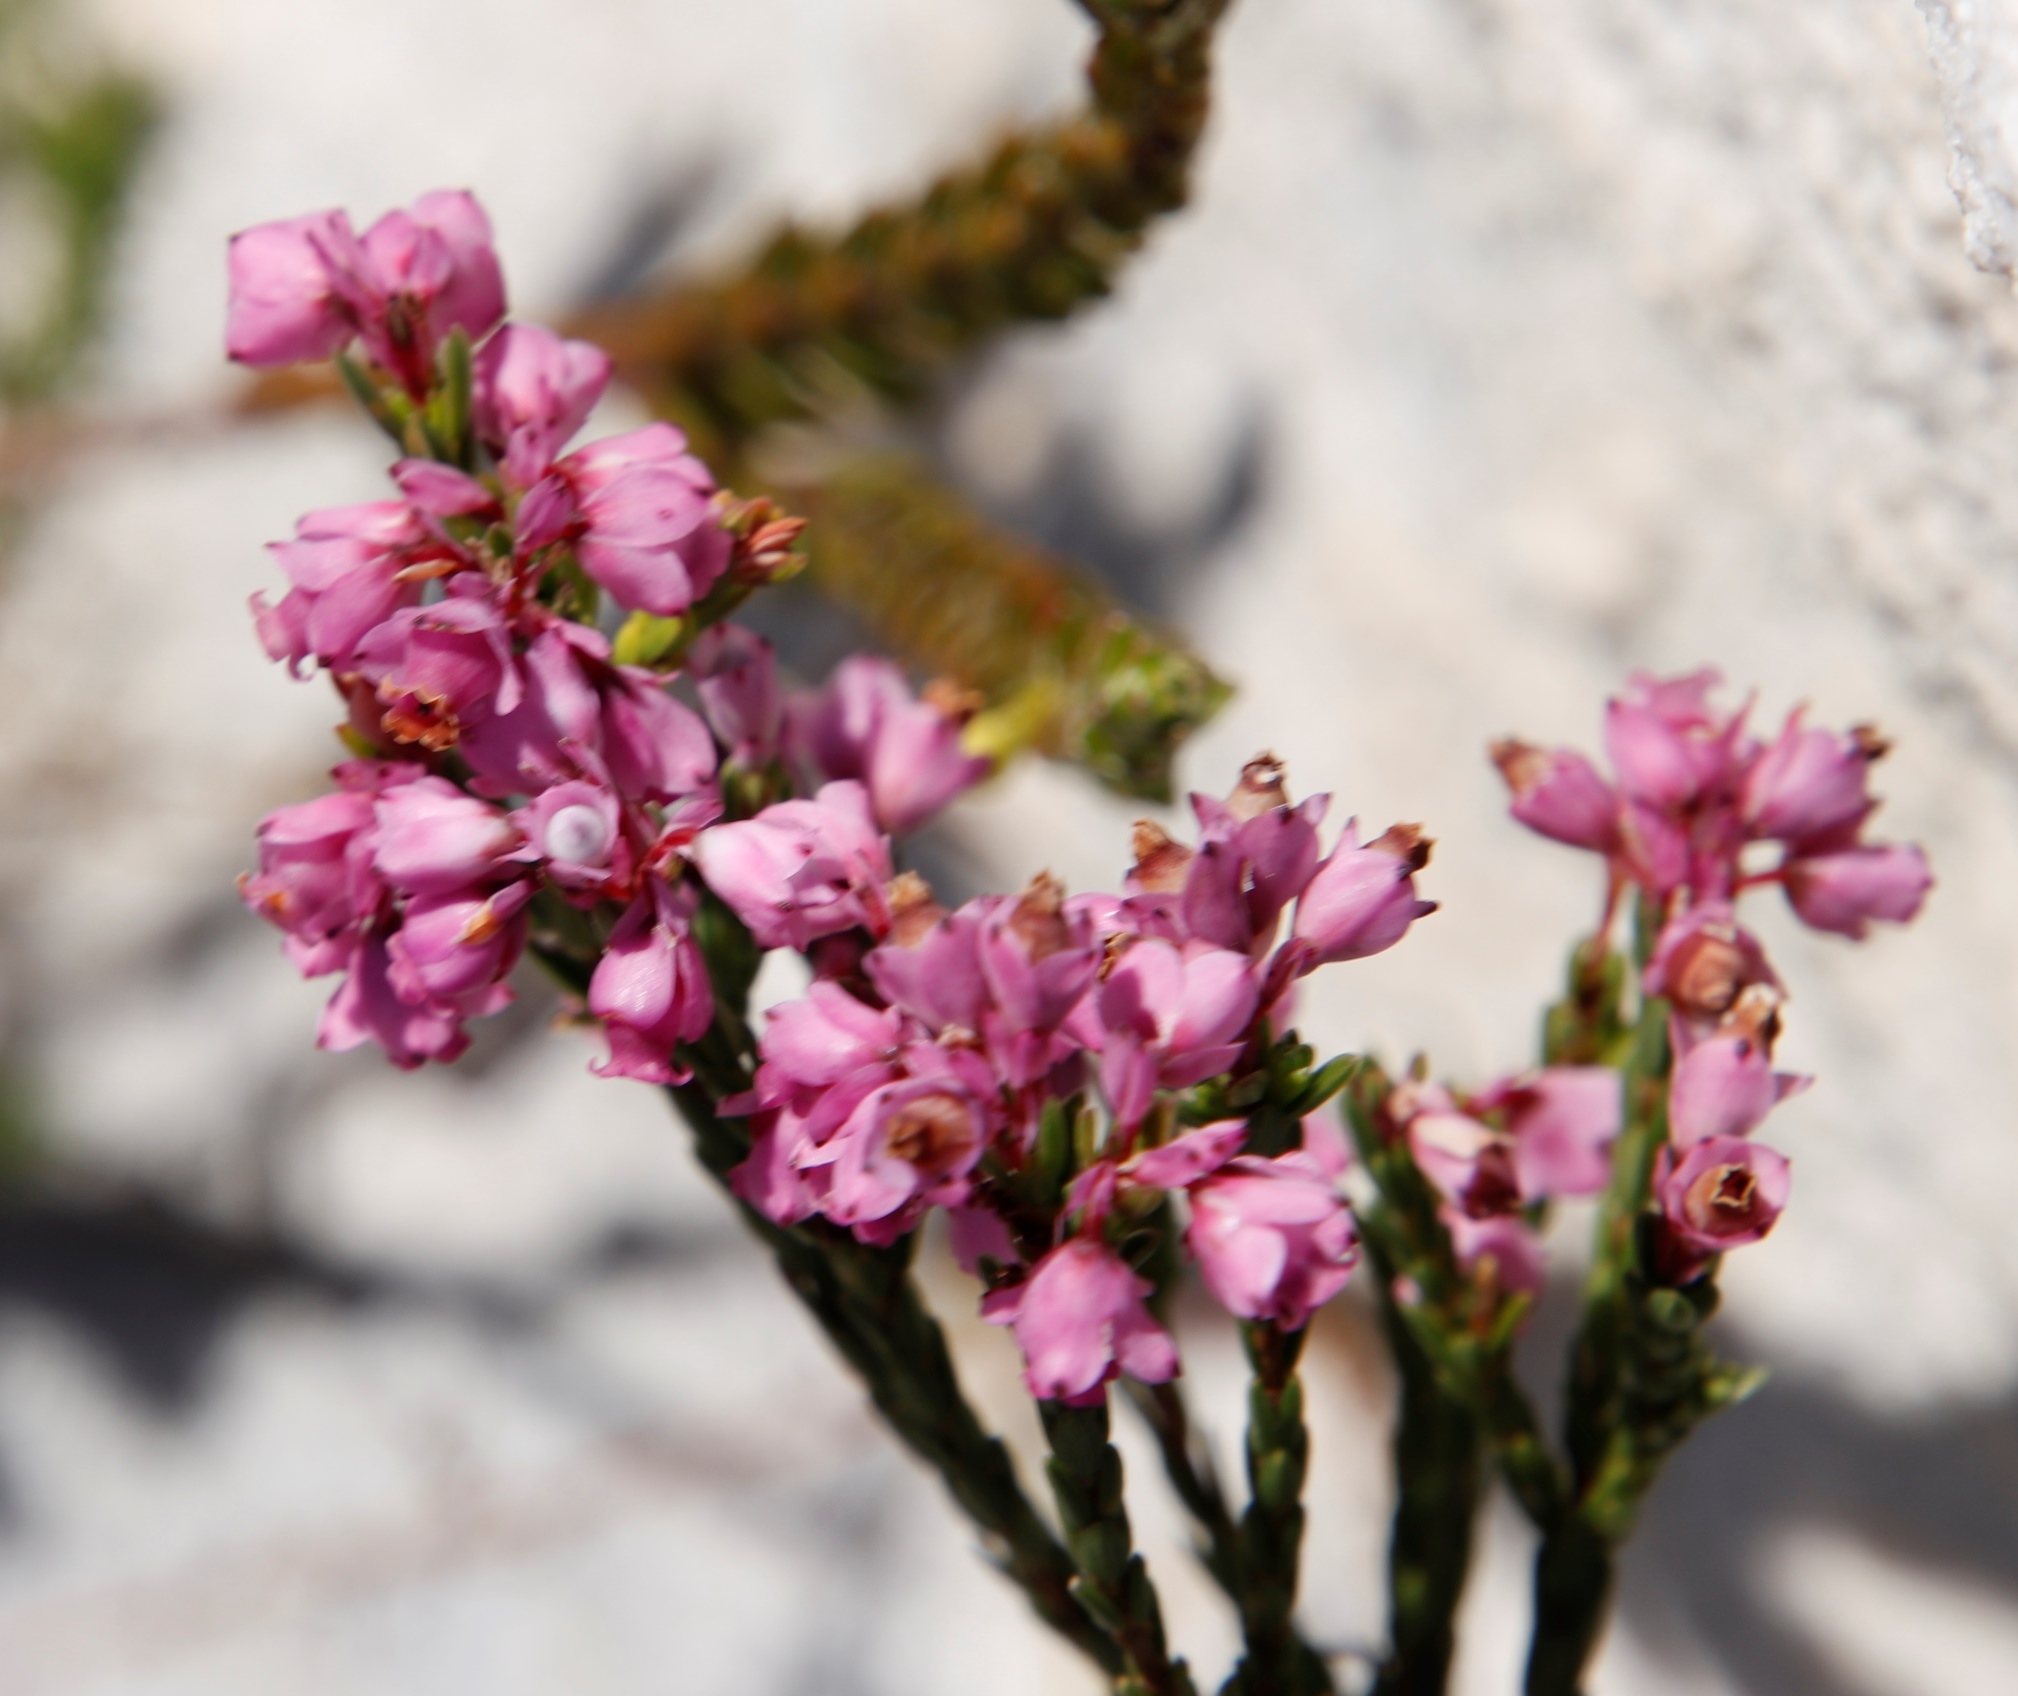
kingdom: Plantae
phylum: Tracheophyta
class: Magnoliopsida
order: Ericales
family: Ericaceae
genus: Erica
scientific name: Erica corifolia
